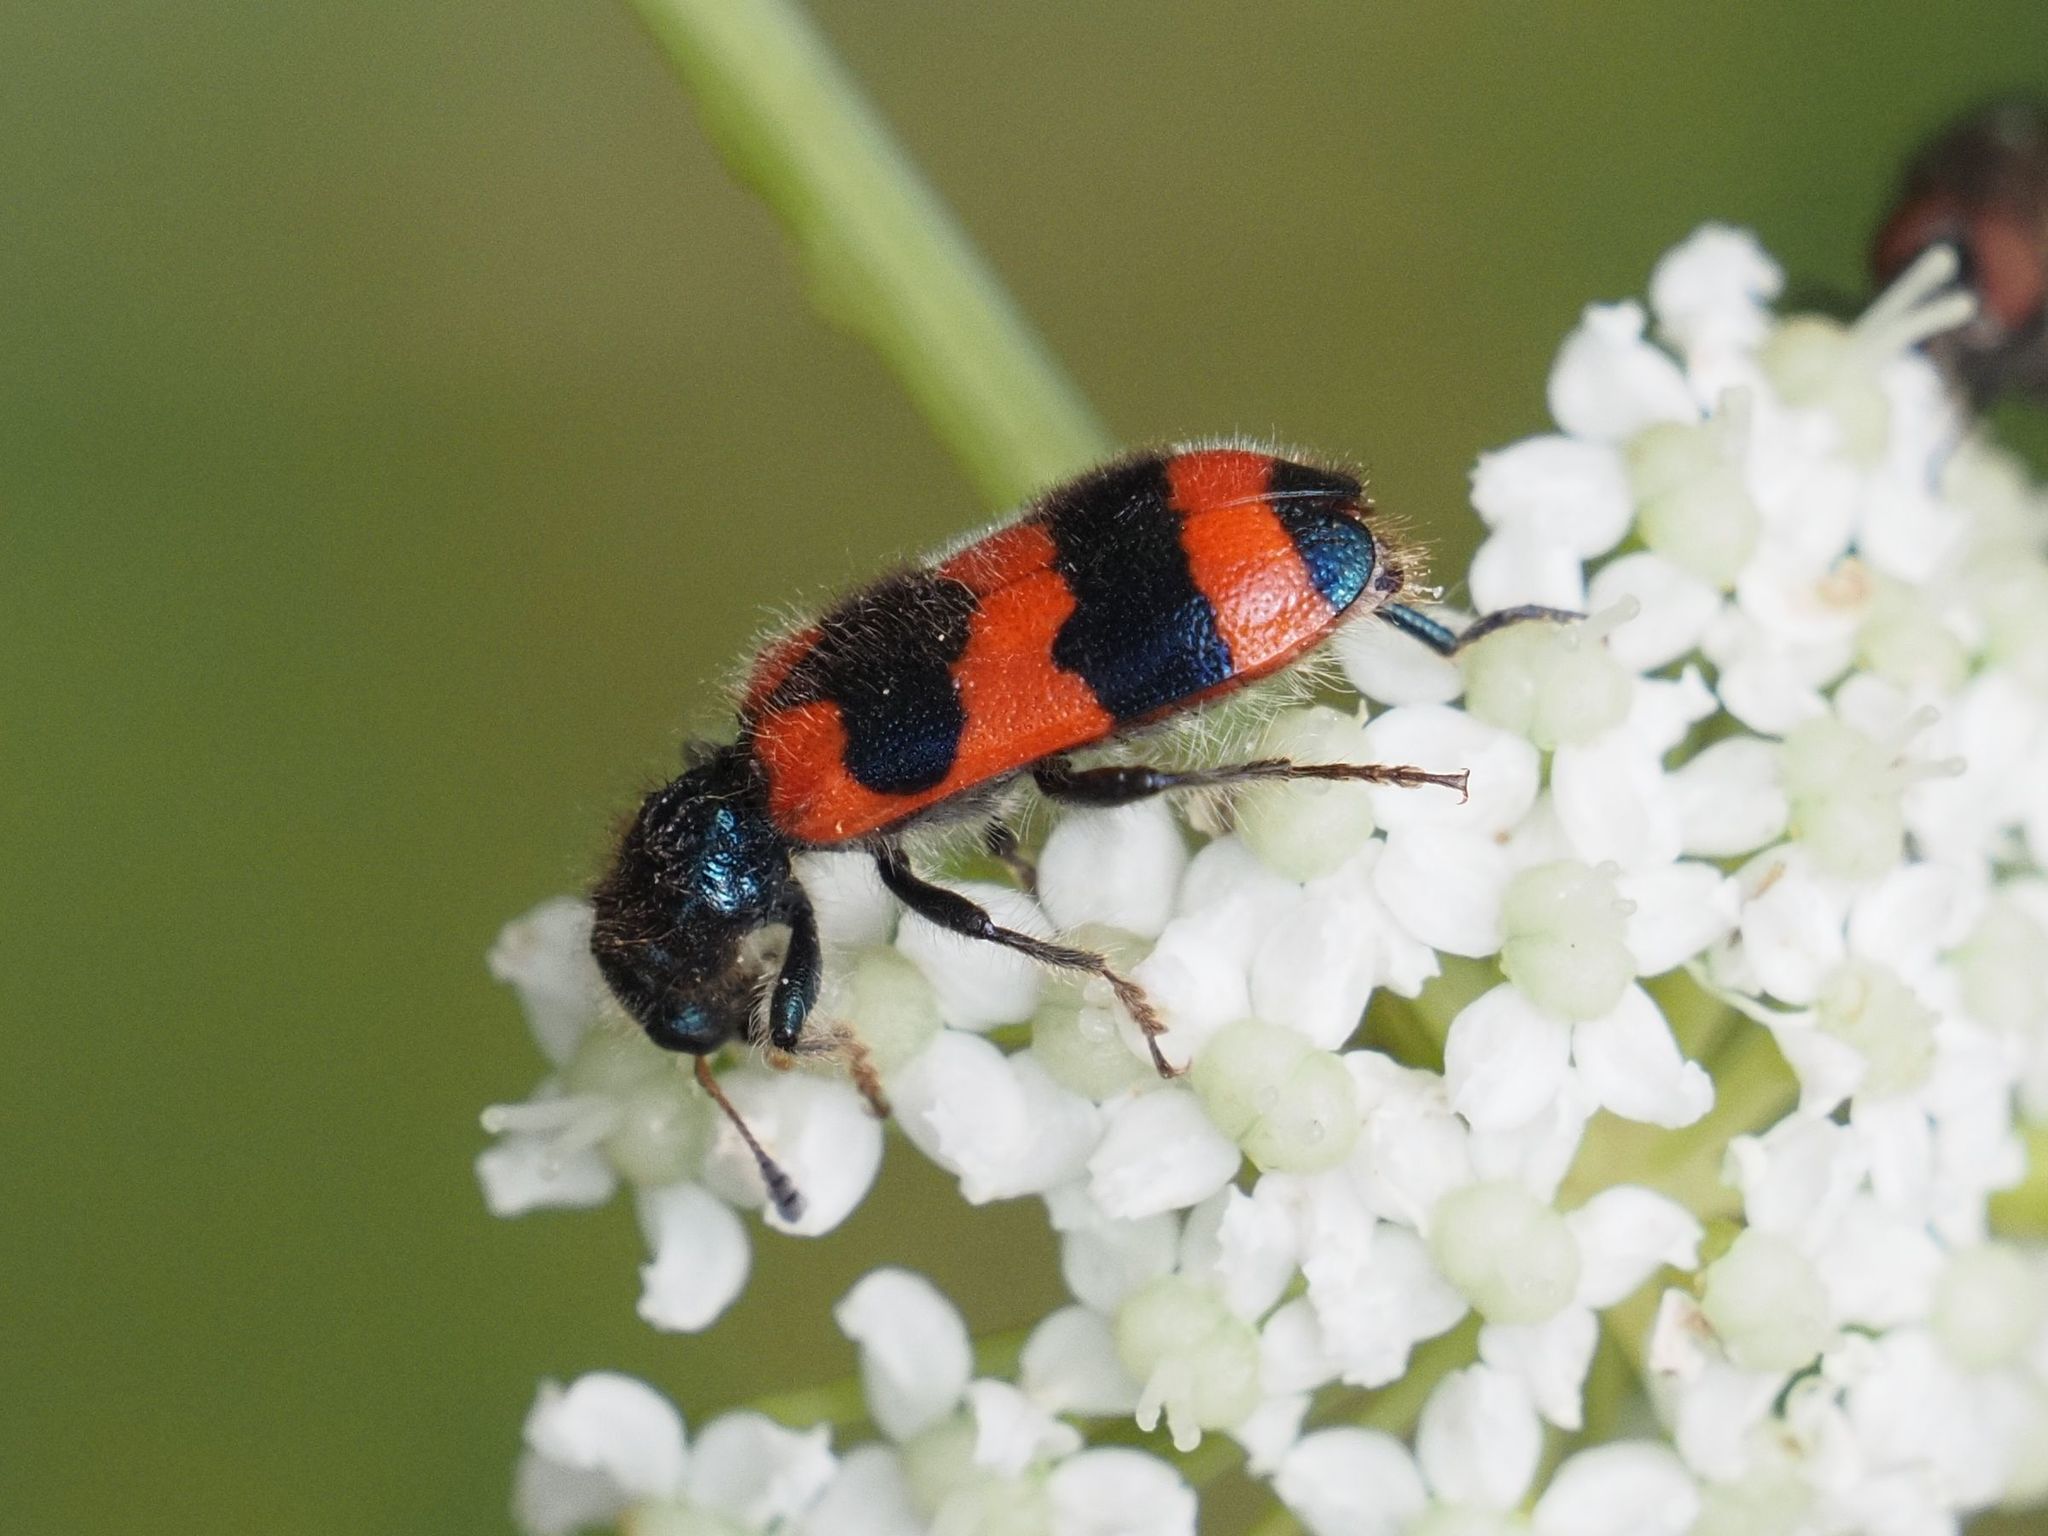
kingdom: Animalia
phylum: Arthropoda
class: Insecta
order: Coleoptera
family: Cleridae
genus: Trichodes
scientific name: Trichodes apiarius
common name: Bee-eating beetle
